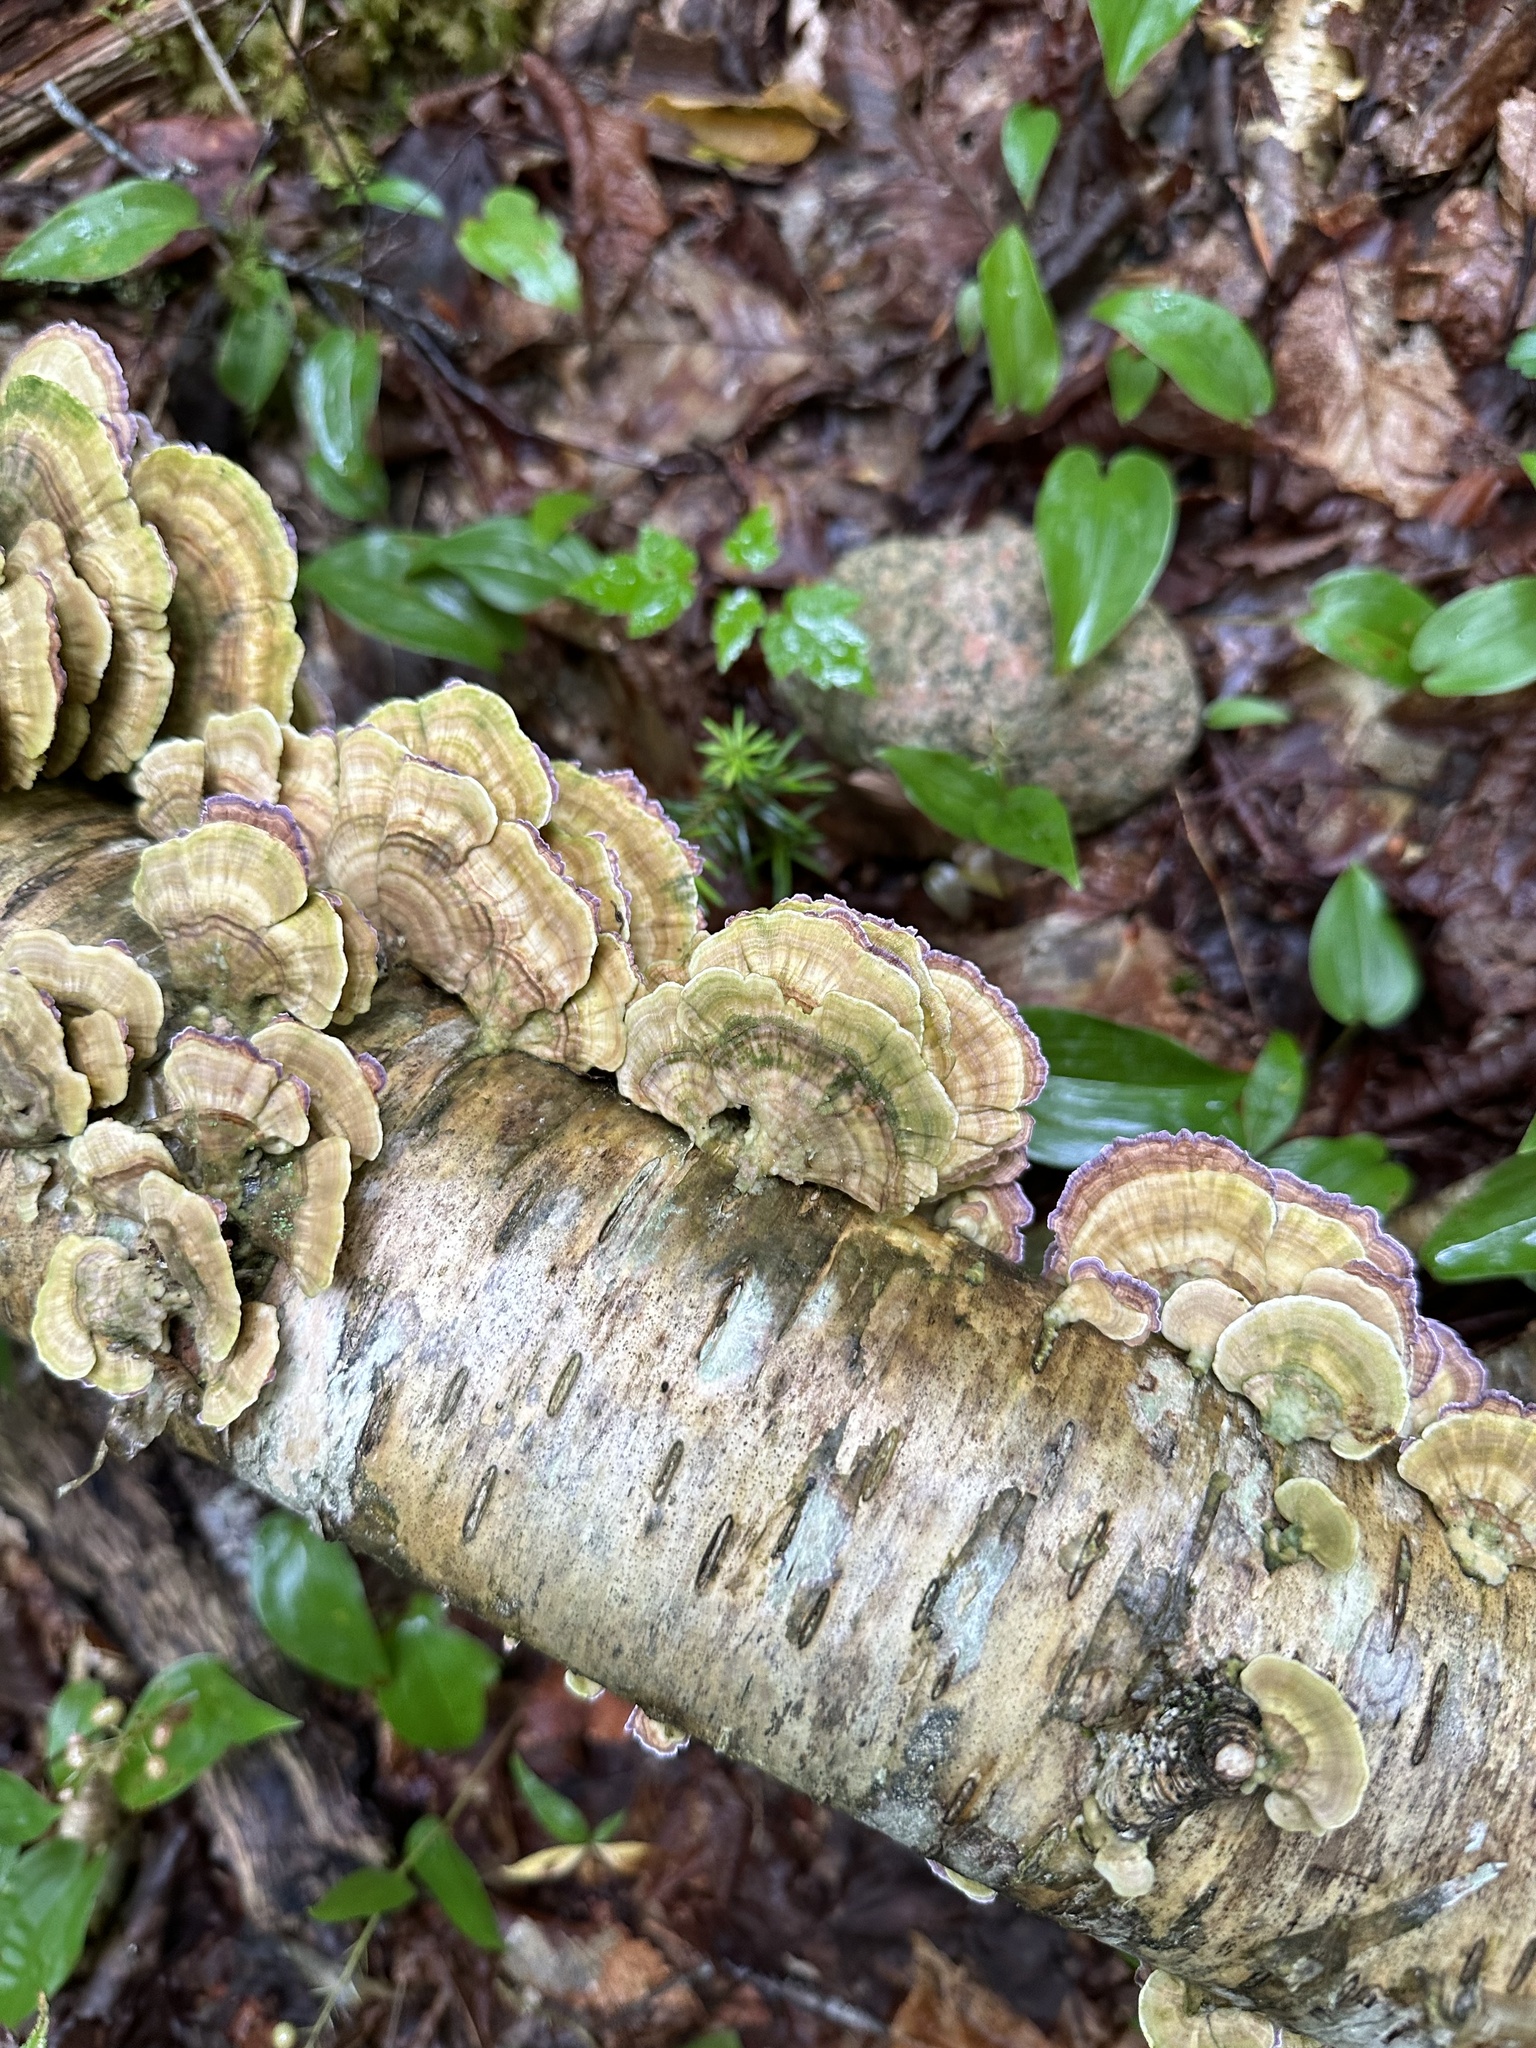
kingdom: Fungi
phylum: Basidiomycota
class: Agaricomycetes
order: Hymenochaetales
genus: Trichaptum
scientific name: Trichaptum biforme
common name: Violet-toothed polypore
